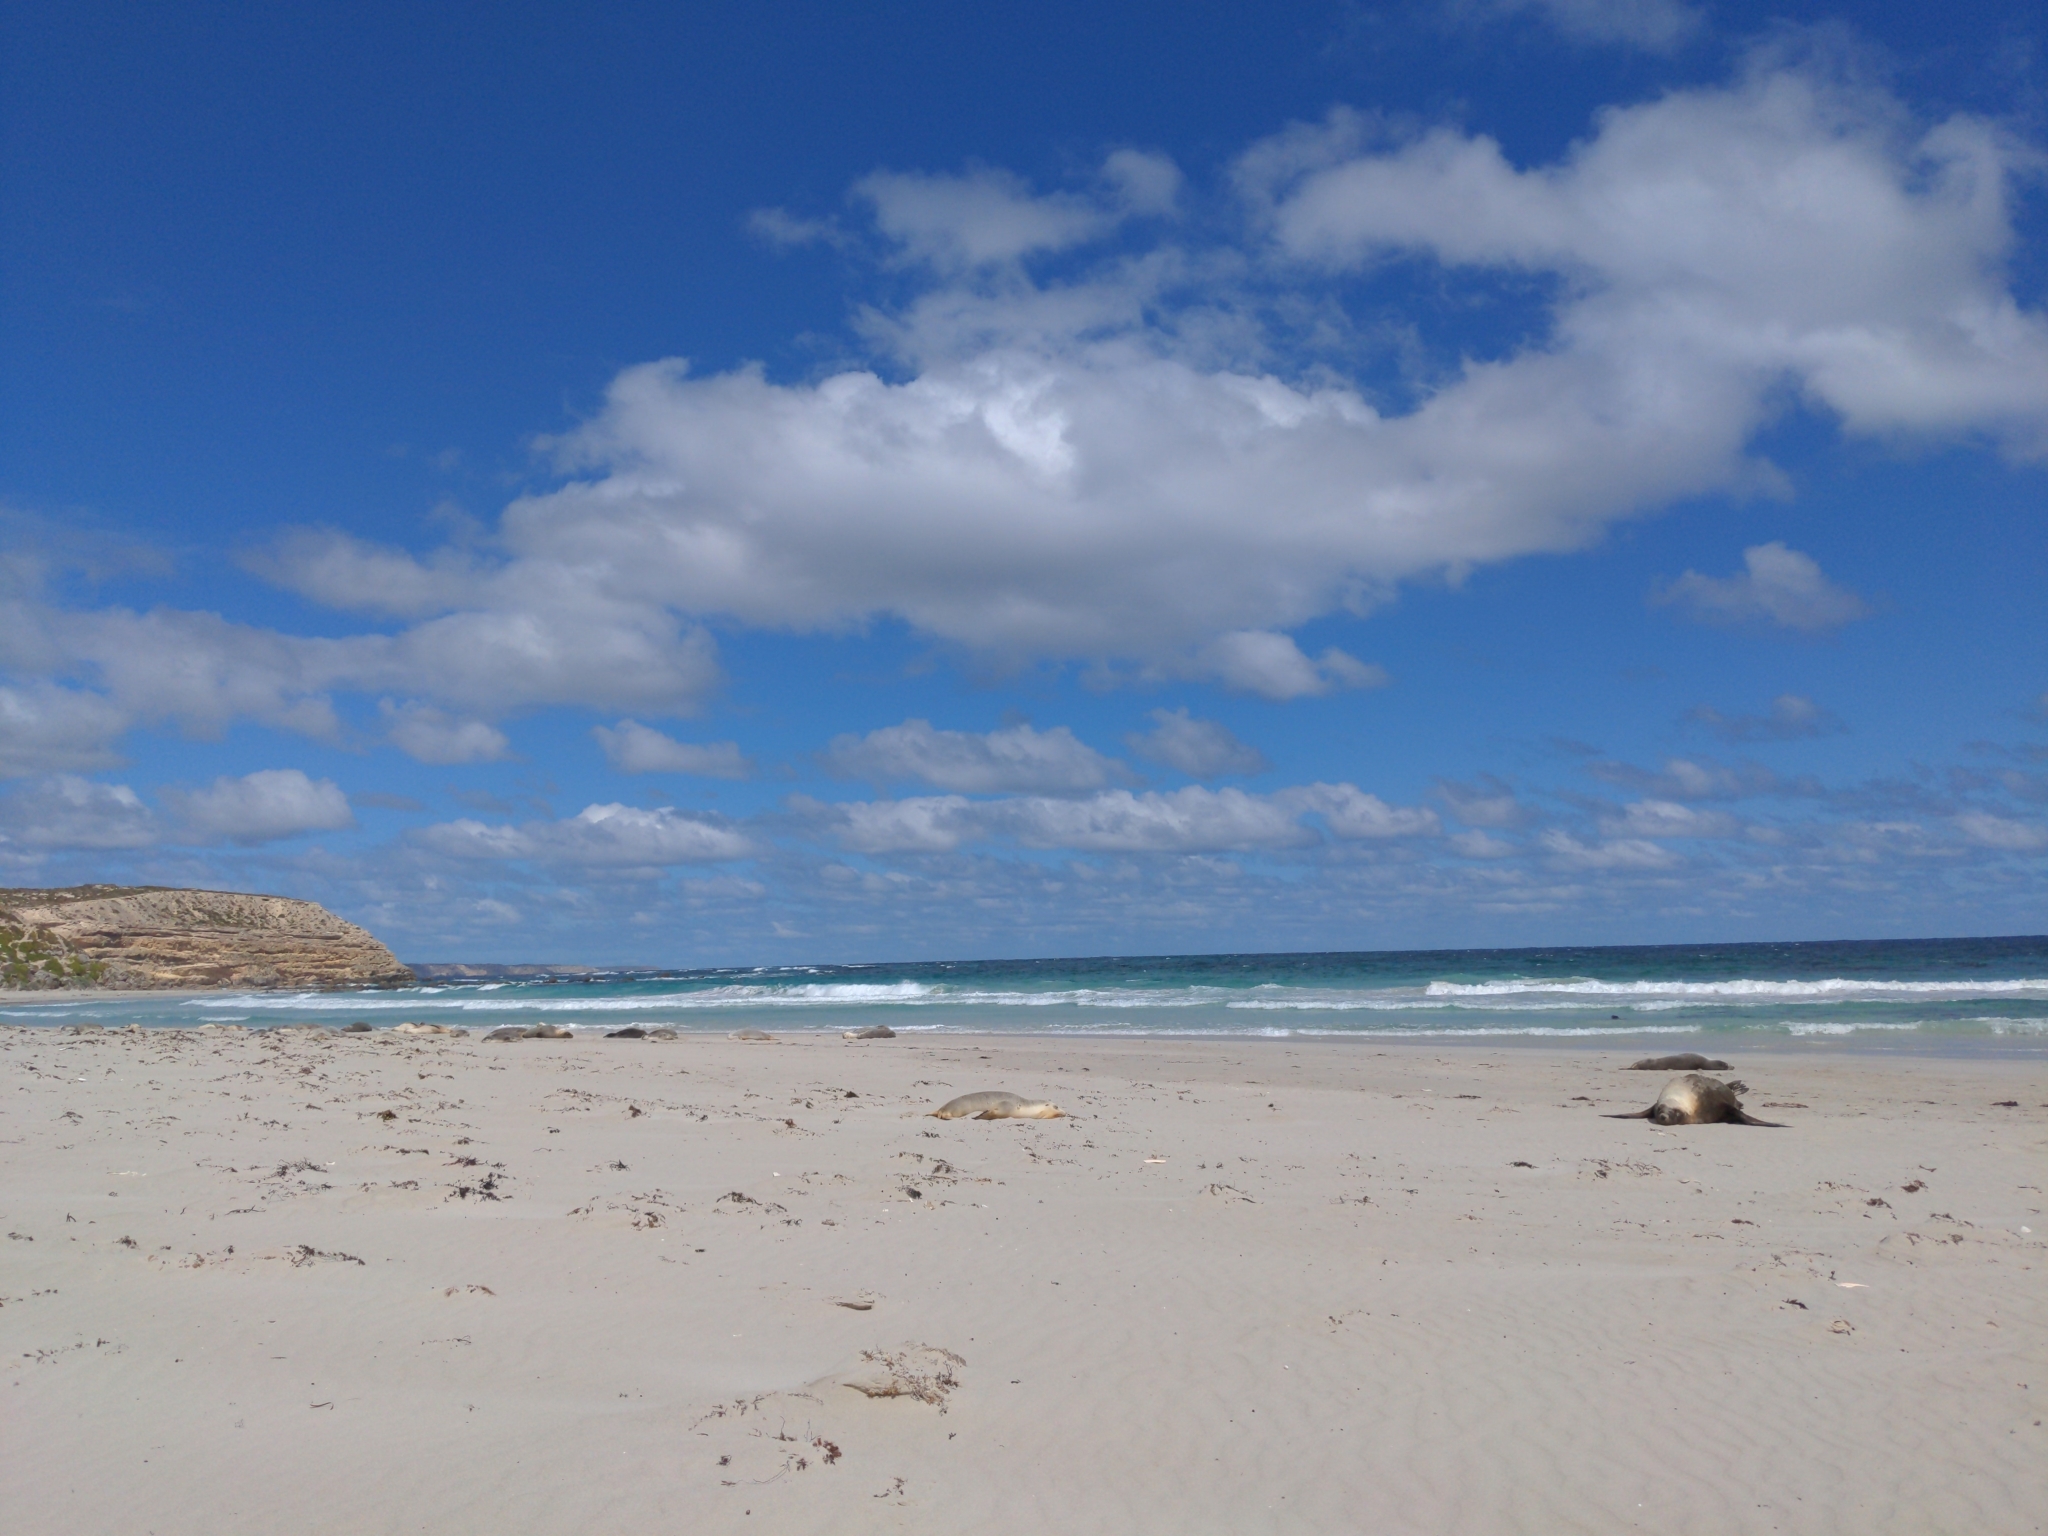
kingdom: Animalia
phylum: Chordata
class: Mammalia
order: Carnivora
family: Otariidae
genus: Neophoca
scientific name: Neophoca cinerea
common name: Australian sea lion
